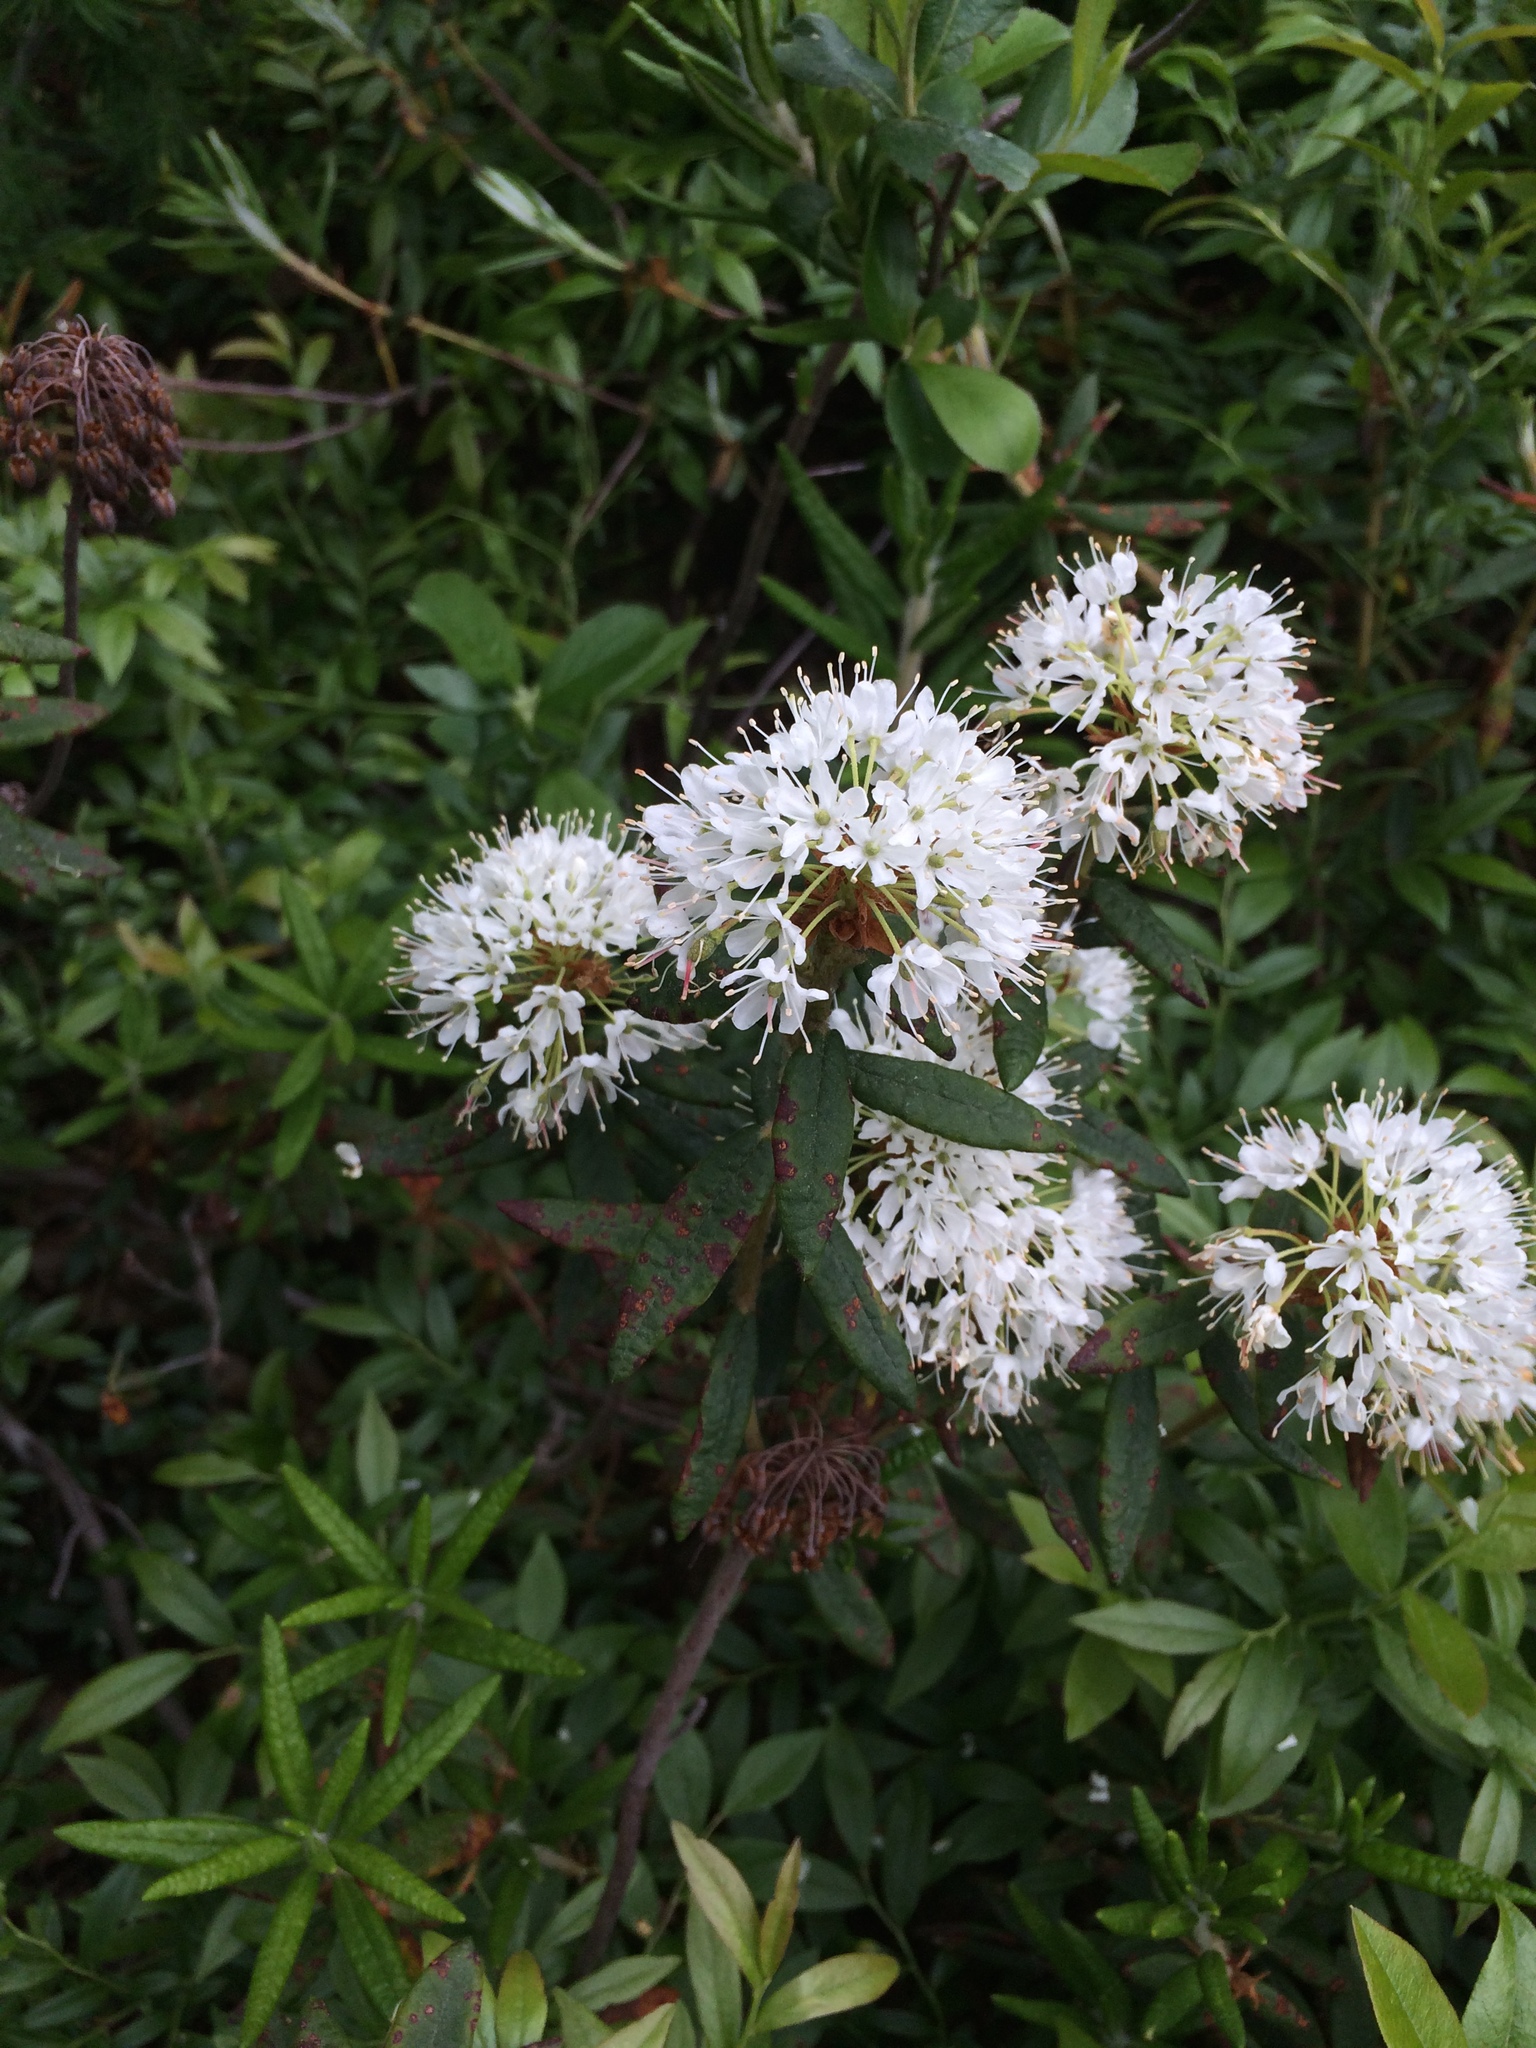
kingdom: Plantae
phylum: Tracheophyta
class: Magnoliopsida
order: Ericales
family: Ericaceae
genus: Rhododendron
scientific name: Rhododendron groenlandicum
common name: Bog labrador tea
